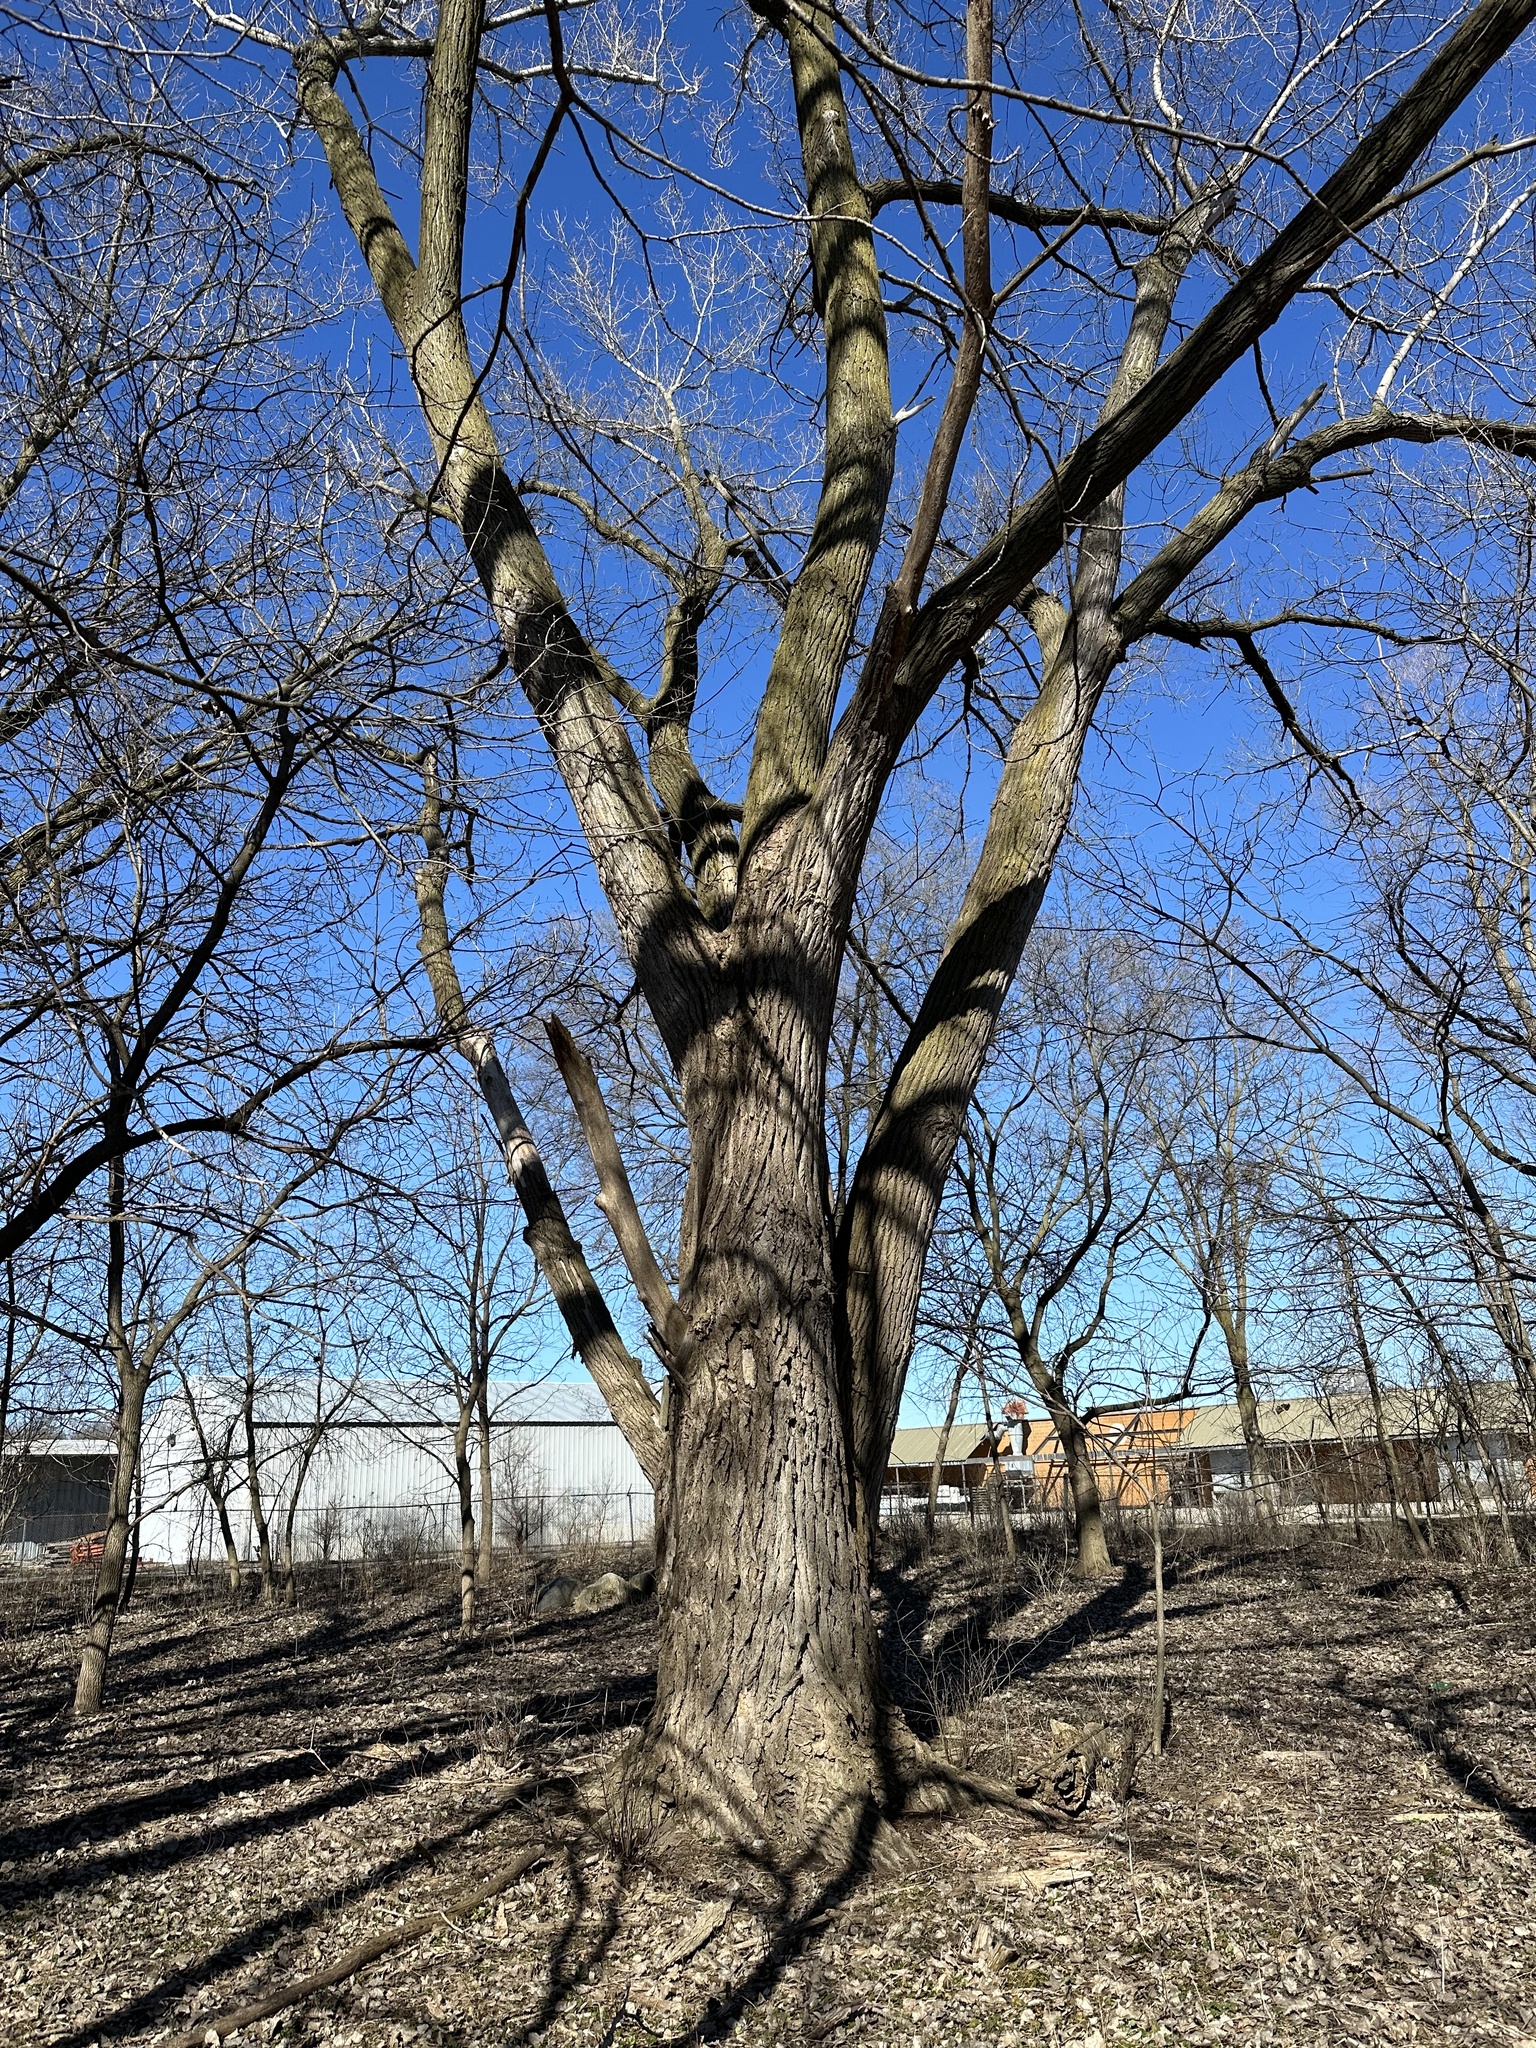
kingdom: Plantae
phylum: Tracheophyta
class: Magnoliopsida
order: Malpighiales
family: Salicaceae
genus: Populus
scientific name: Populus deltoides
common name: Eastern cottonwood
